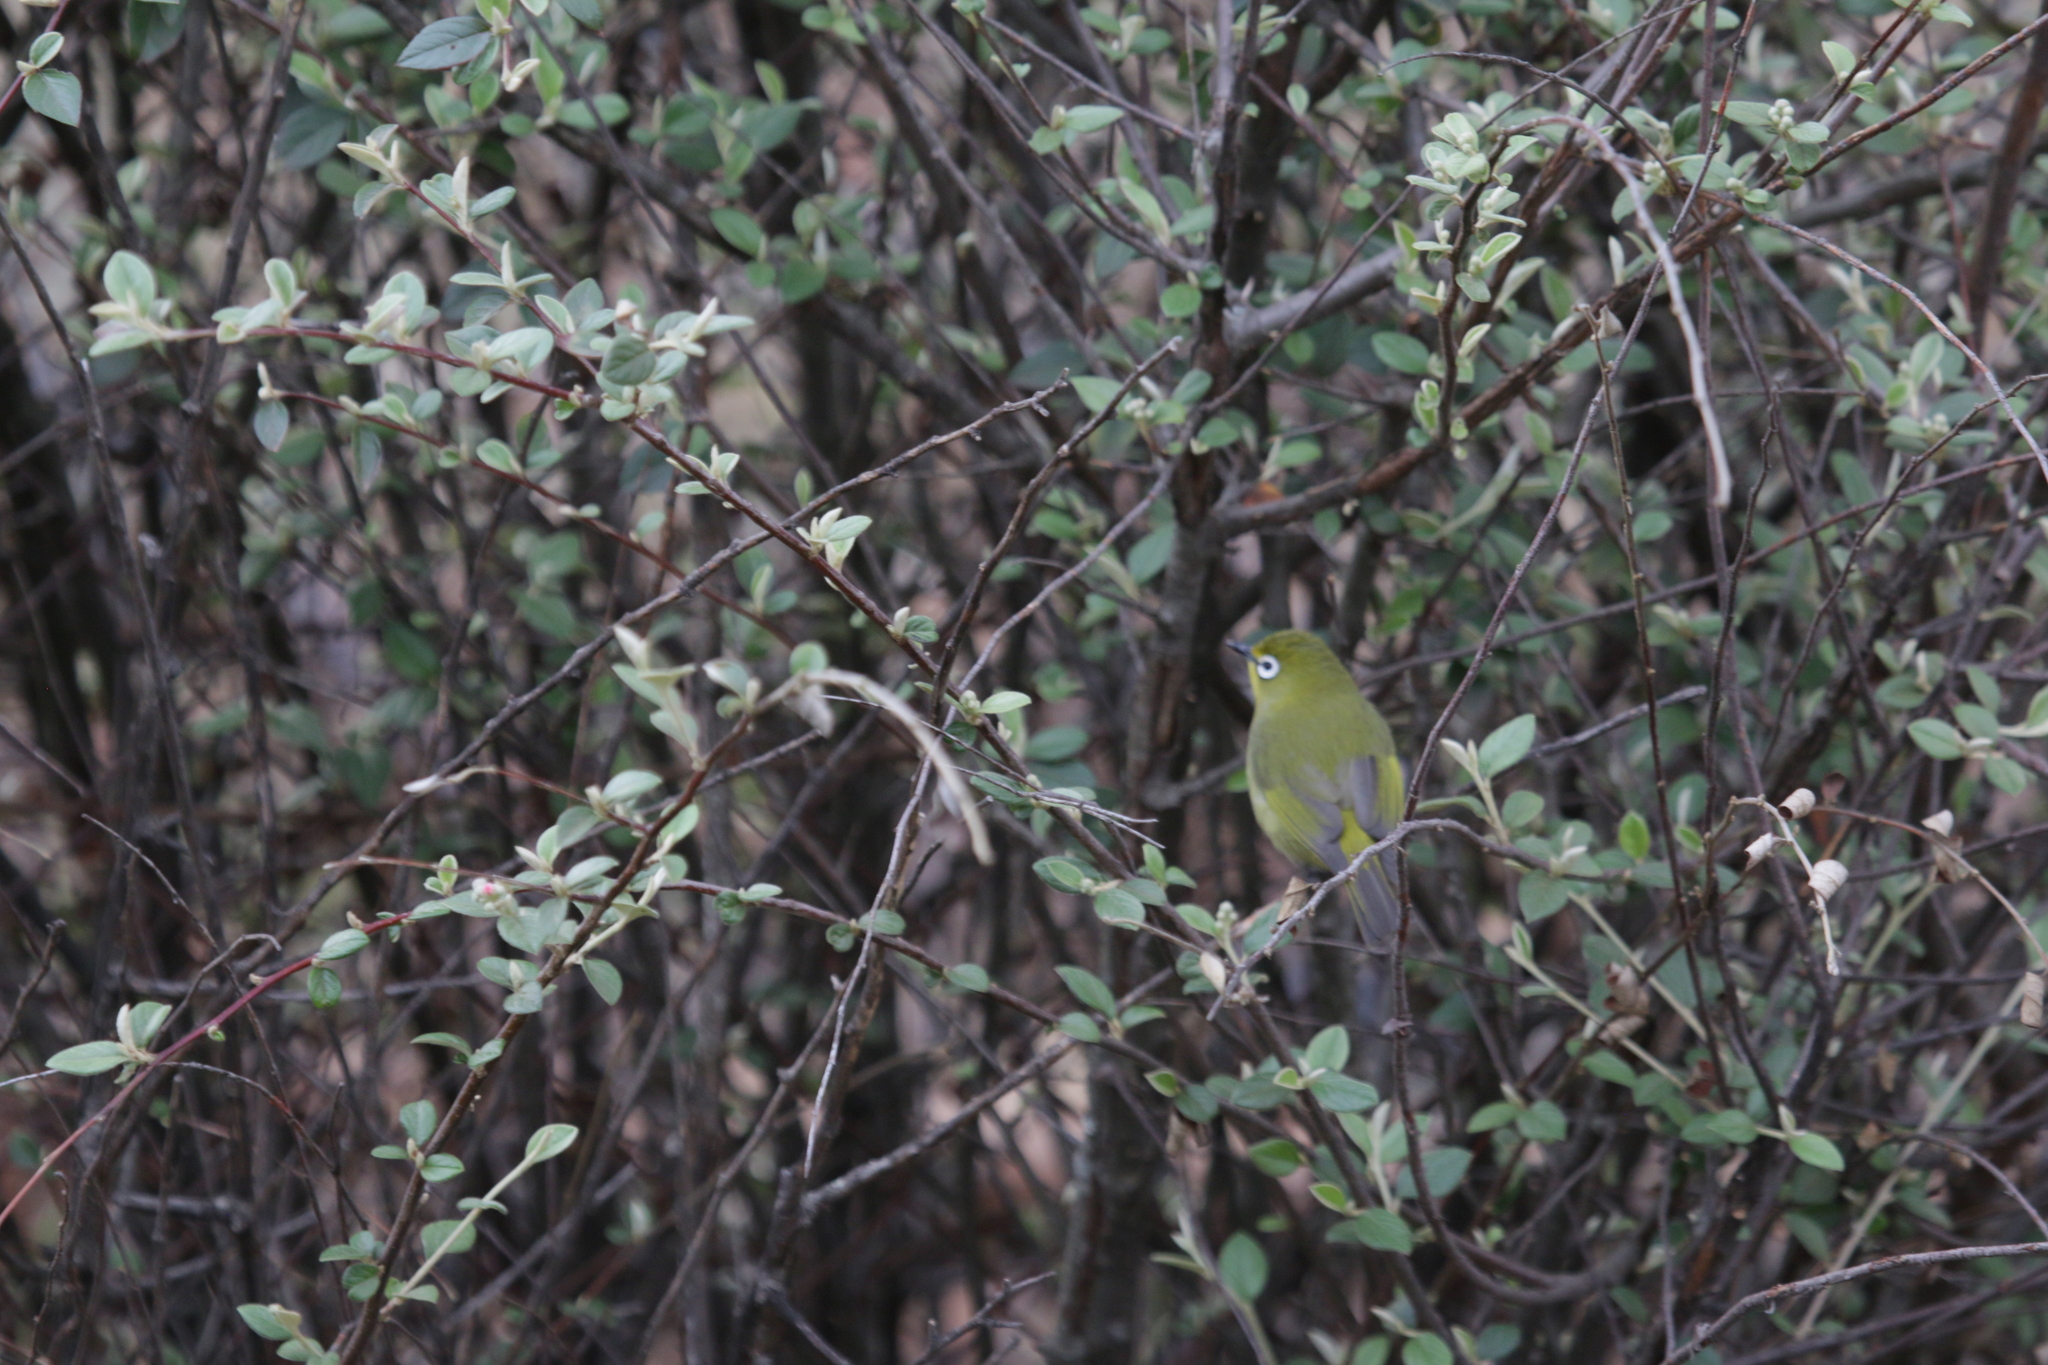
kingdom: Animalia
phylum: Chordata
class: Aves
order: Passeriformes
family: Zosteropidae
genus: Zosterops
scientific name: Zosterops virens
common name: Cape white-eye
